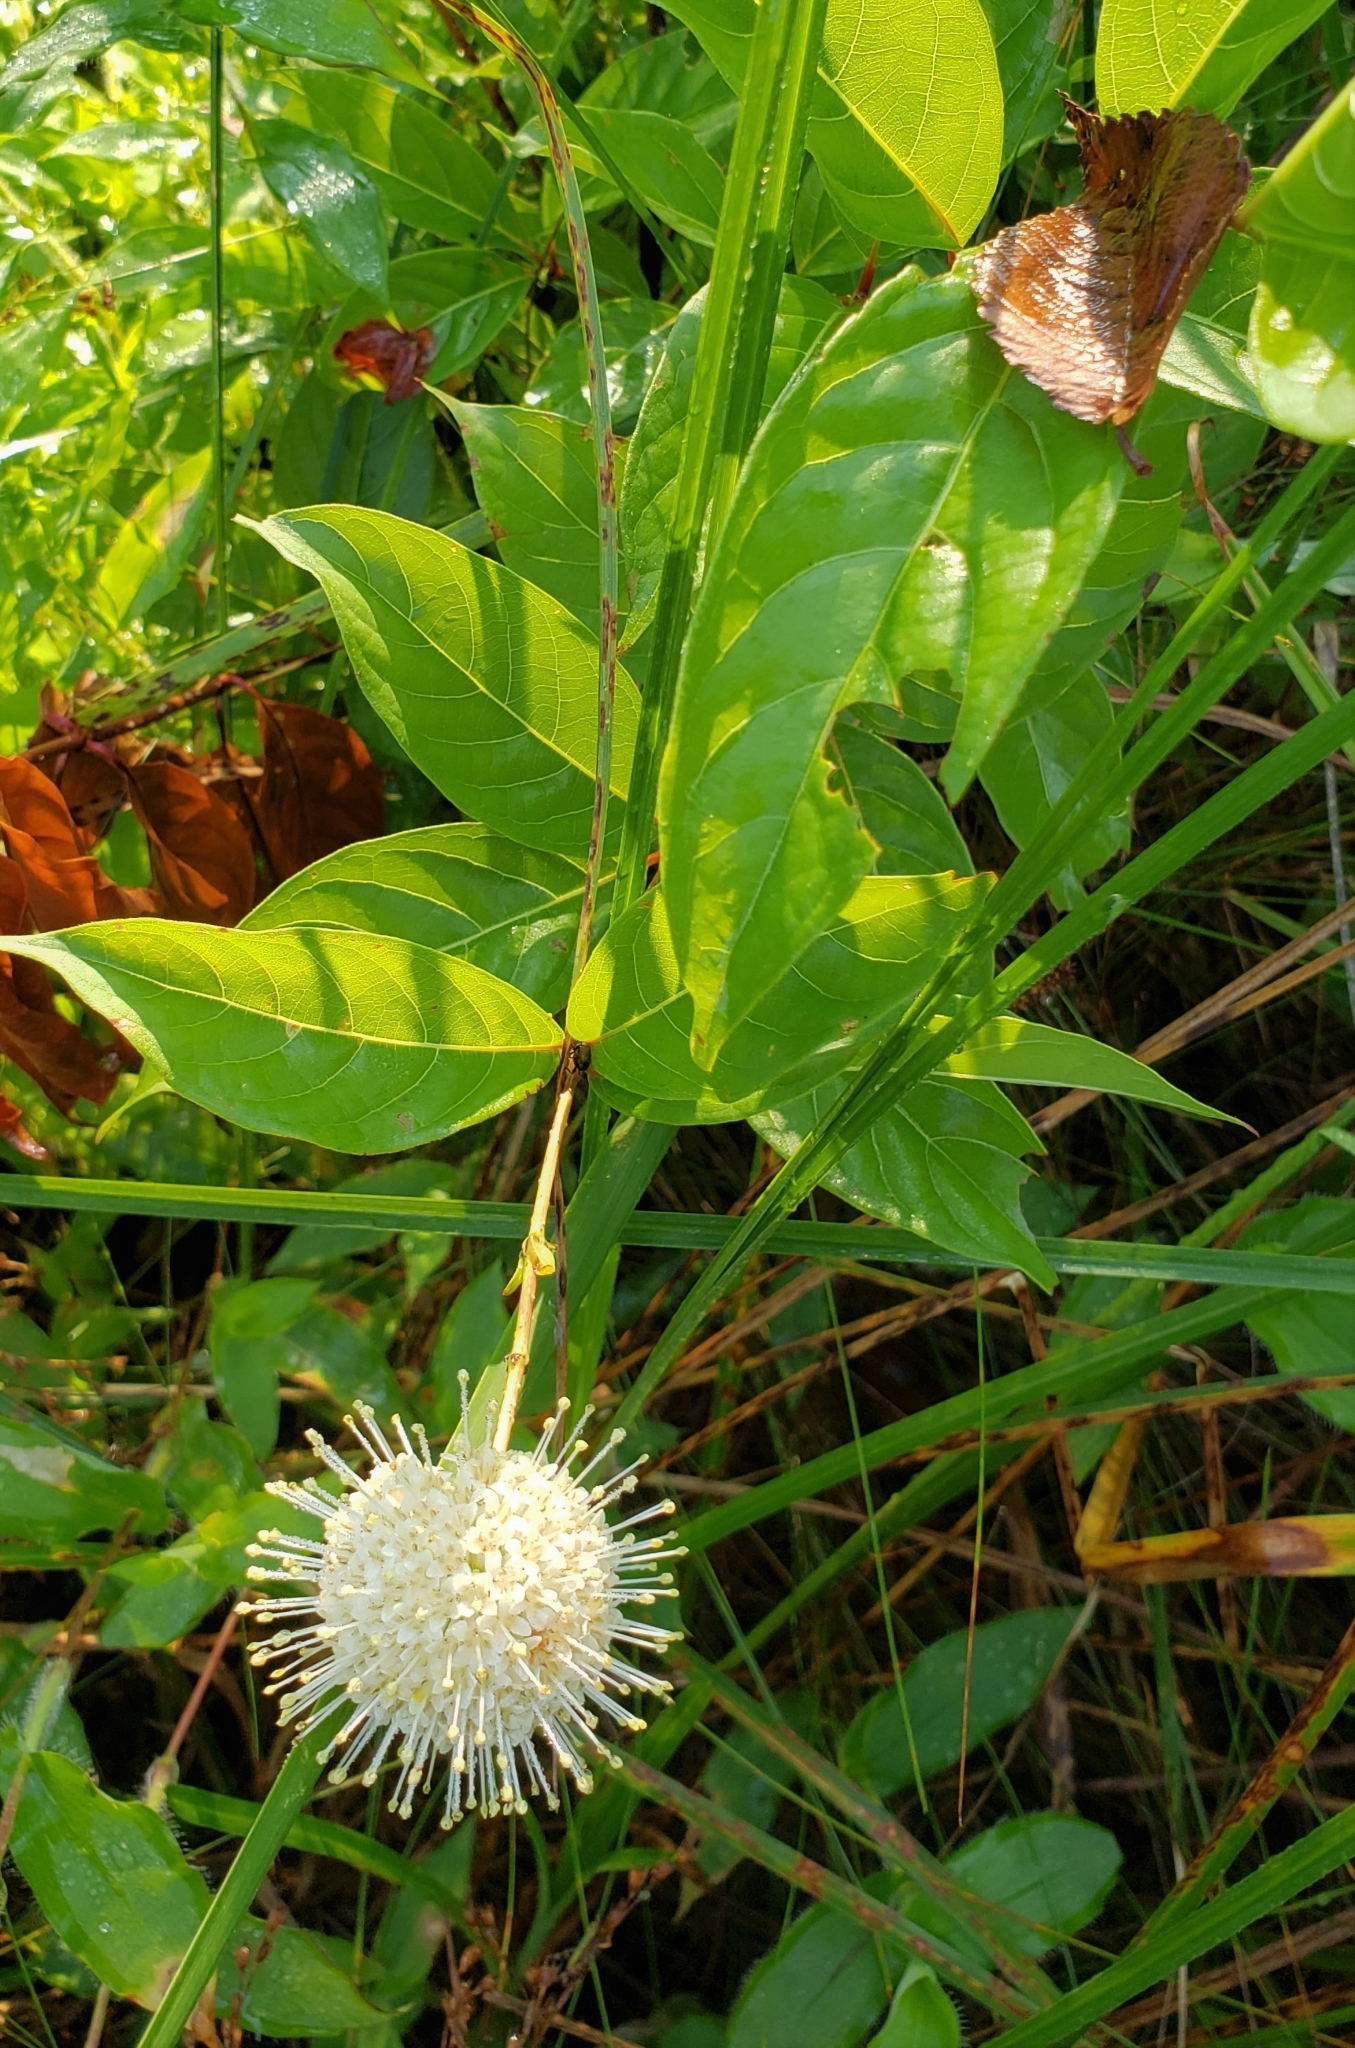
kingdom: Plantae
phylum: Tracheophyta
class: Magnoliopsida
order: Gentianales
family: Rubiaceae
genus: Cephalanthus
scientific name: Cephalanthus occidentalis
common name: Button-willow
